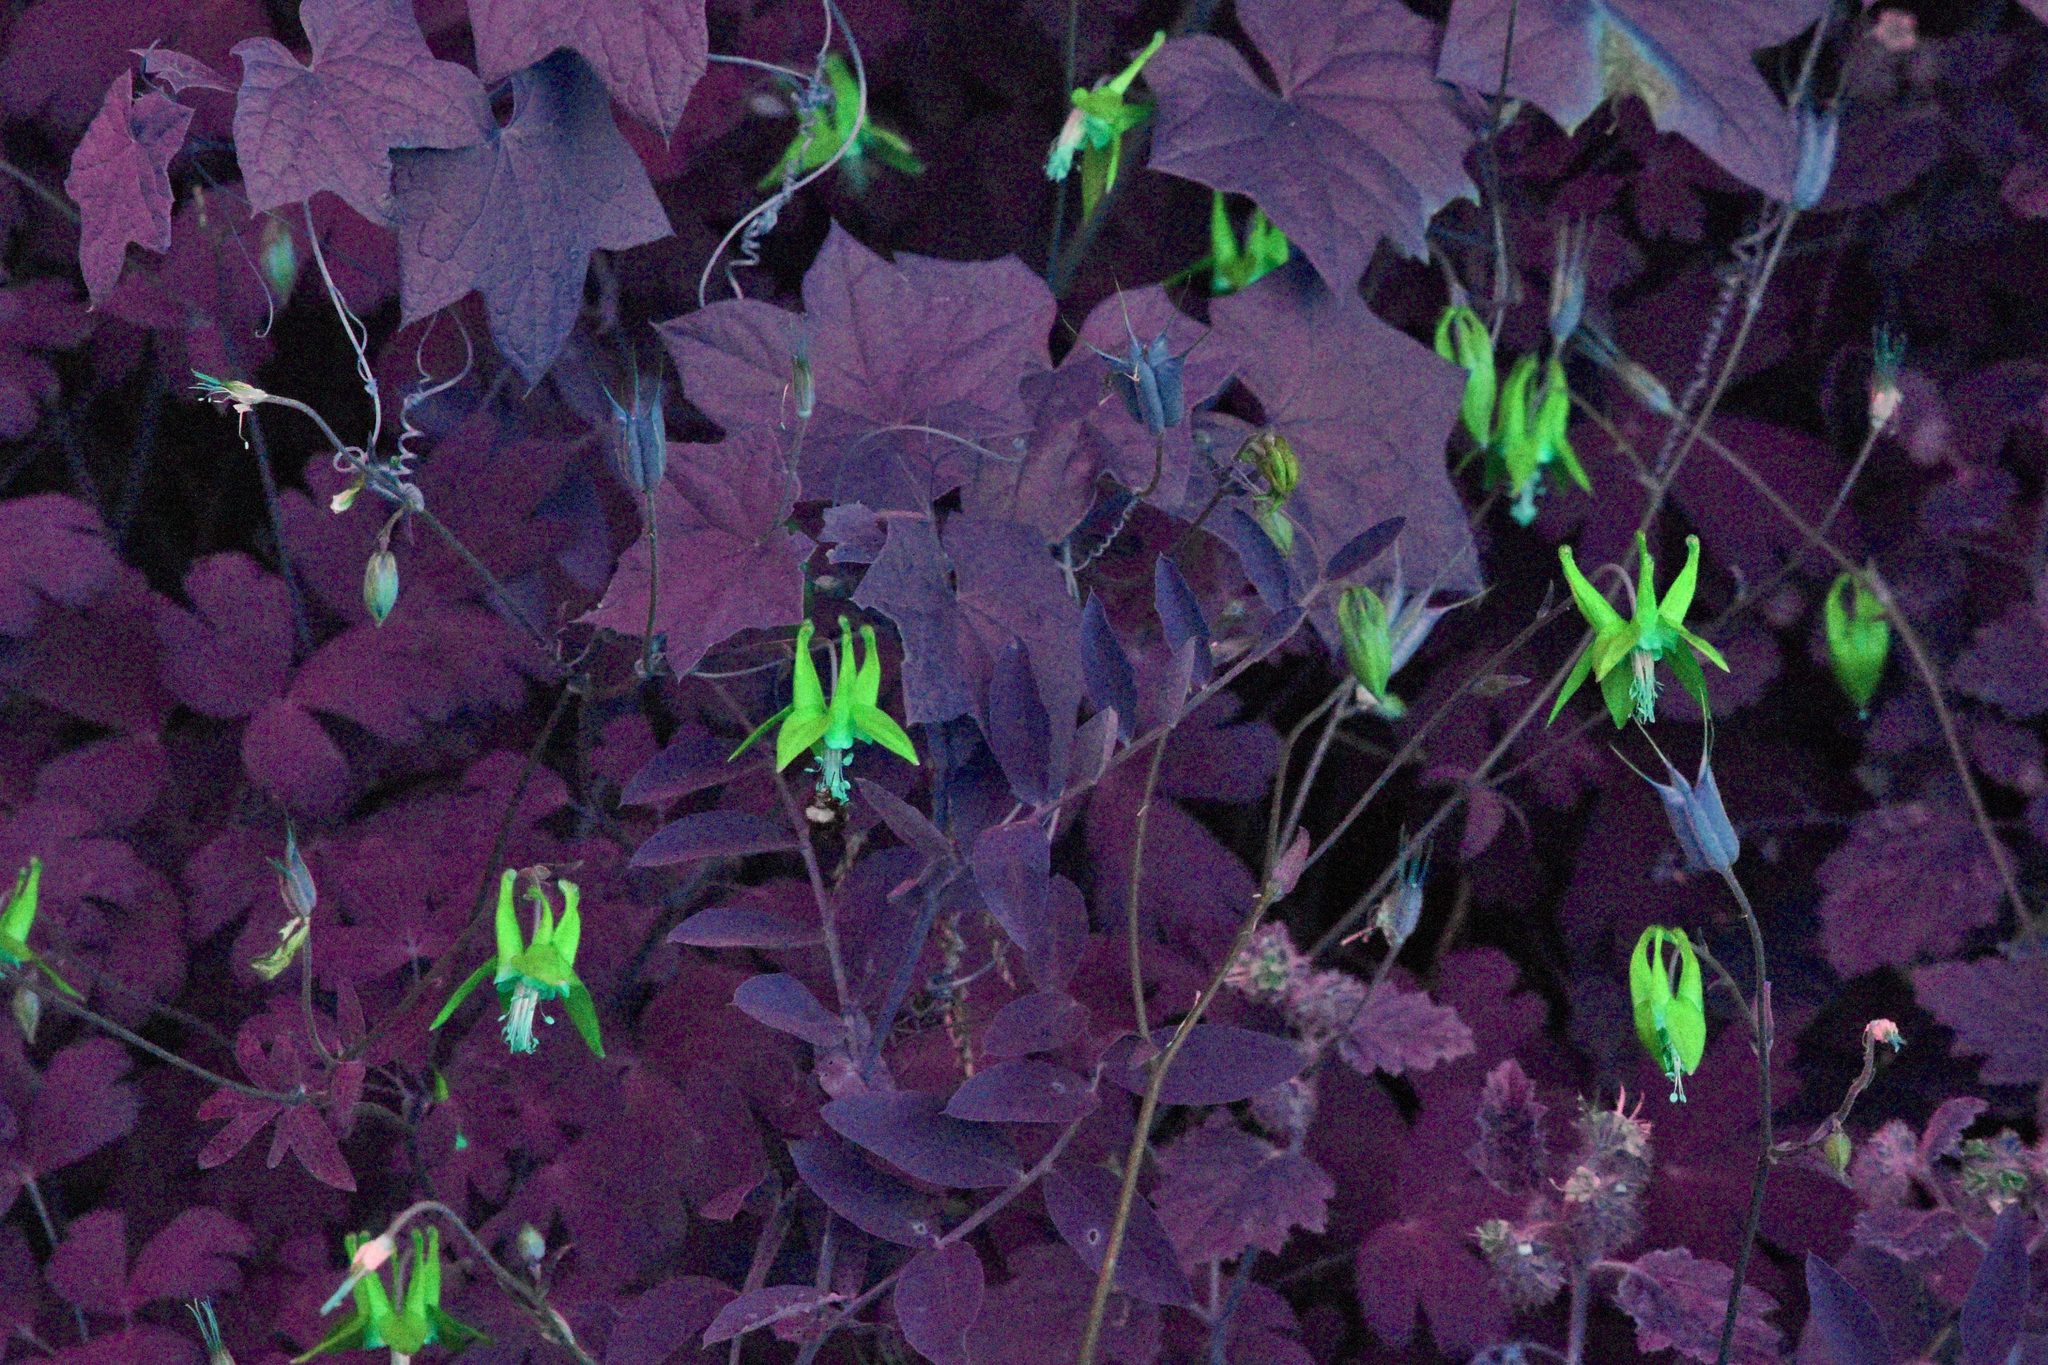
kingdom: Plantae
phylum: Tracheophyta
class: Magnoliopsida
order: Ranunculales
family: Ranunculaceae
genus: Aquilegia
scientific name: Aquilegia formosa
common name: Sitka columbine
